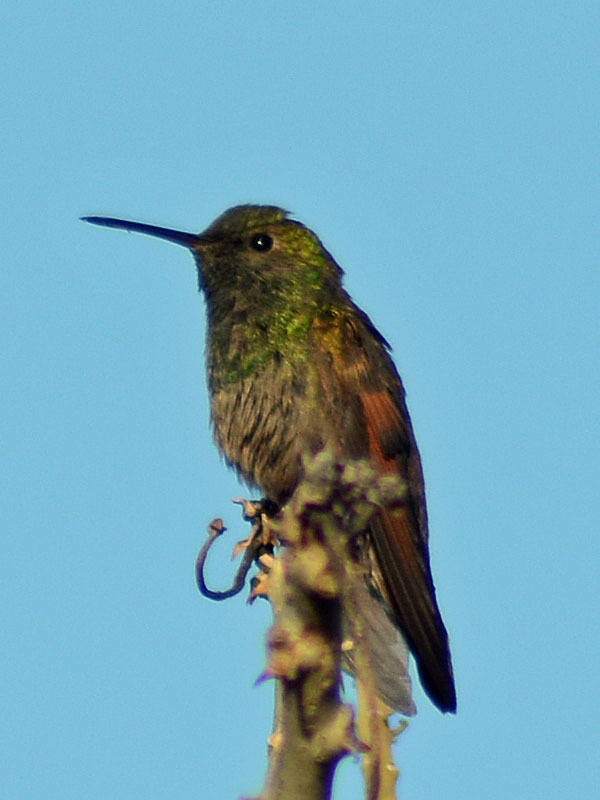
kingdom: Animalia
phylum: Chordata
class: Aves
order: Apodiformes
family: Trochilidae
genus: Saucerottia
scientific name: Saucerottia beryllina
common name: Berylline hummingbird
